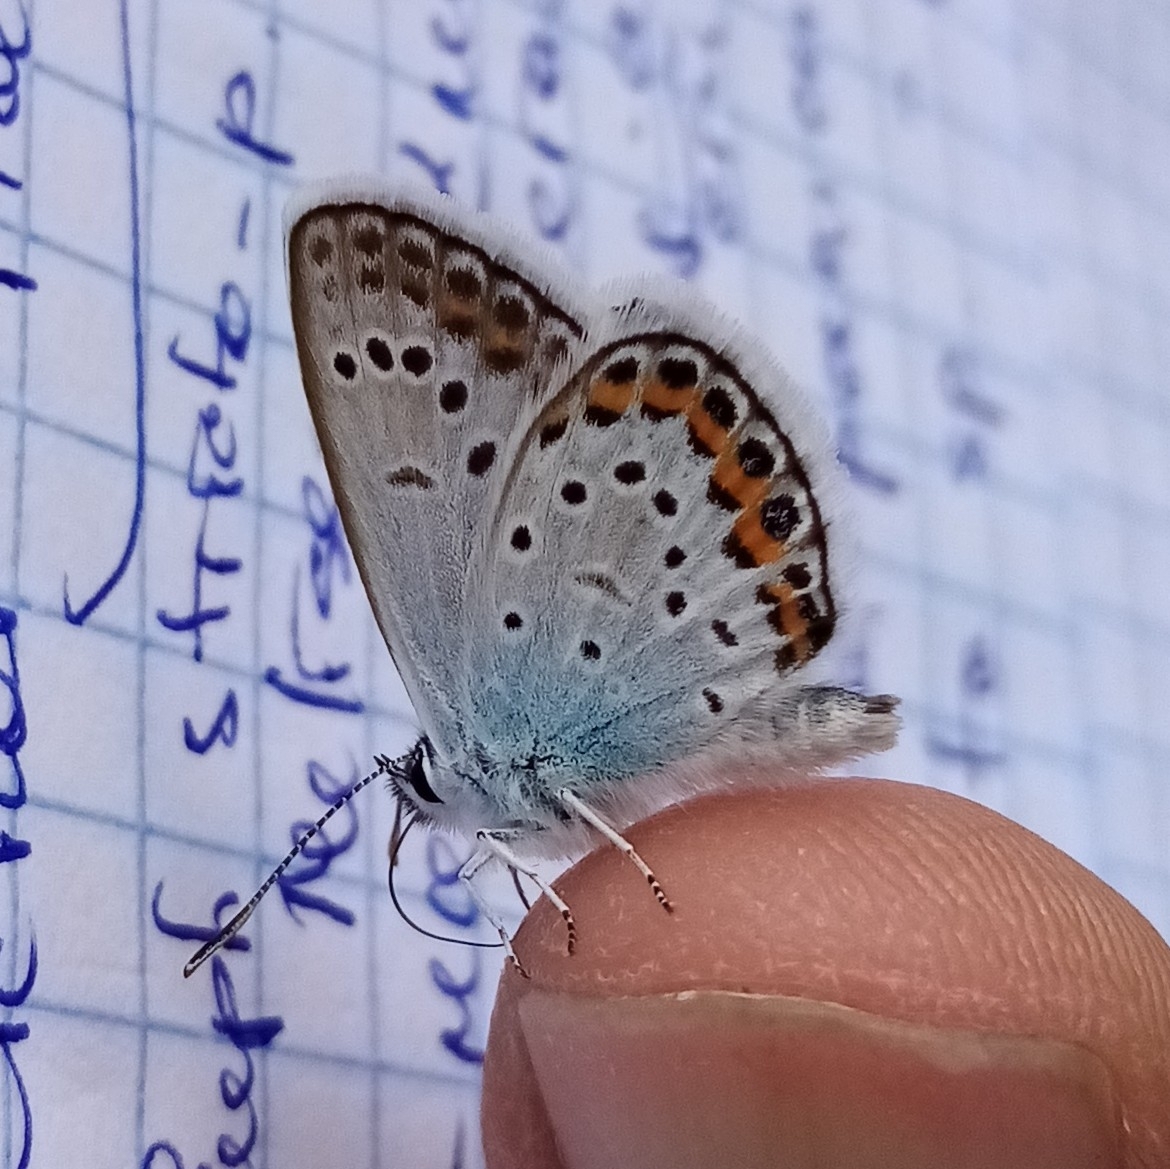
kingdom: Animalia
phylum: Arthropoda
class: Insecta
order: Lepidoptera
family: Lycaenidae
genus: Plebejus
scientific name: Plebejus argus
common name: Silver-studded blue
